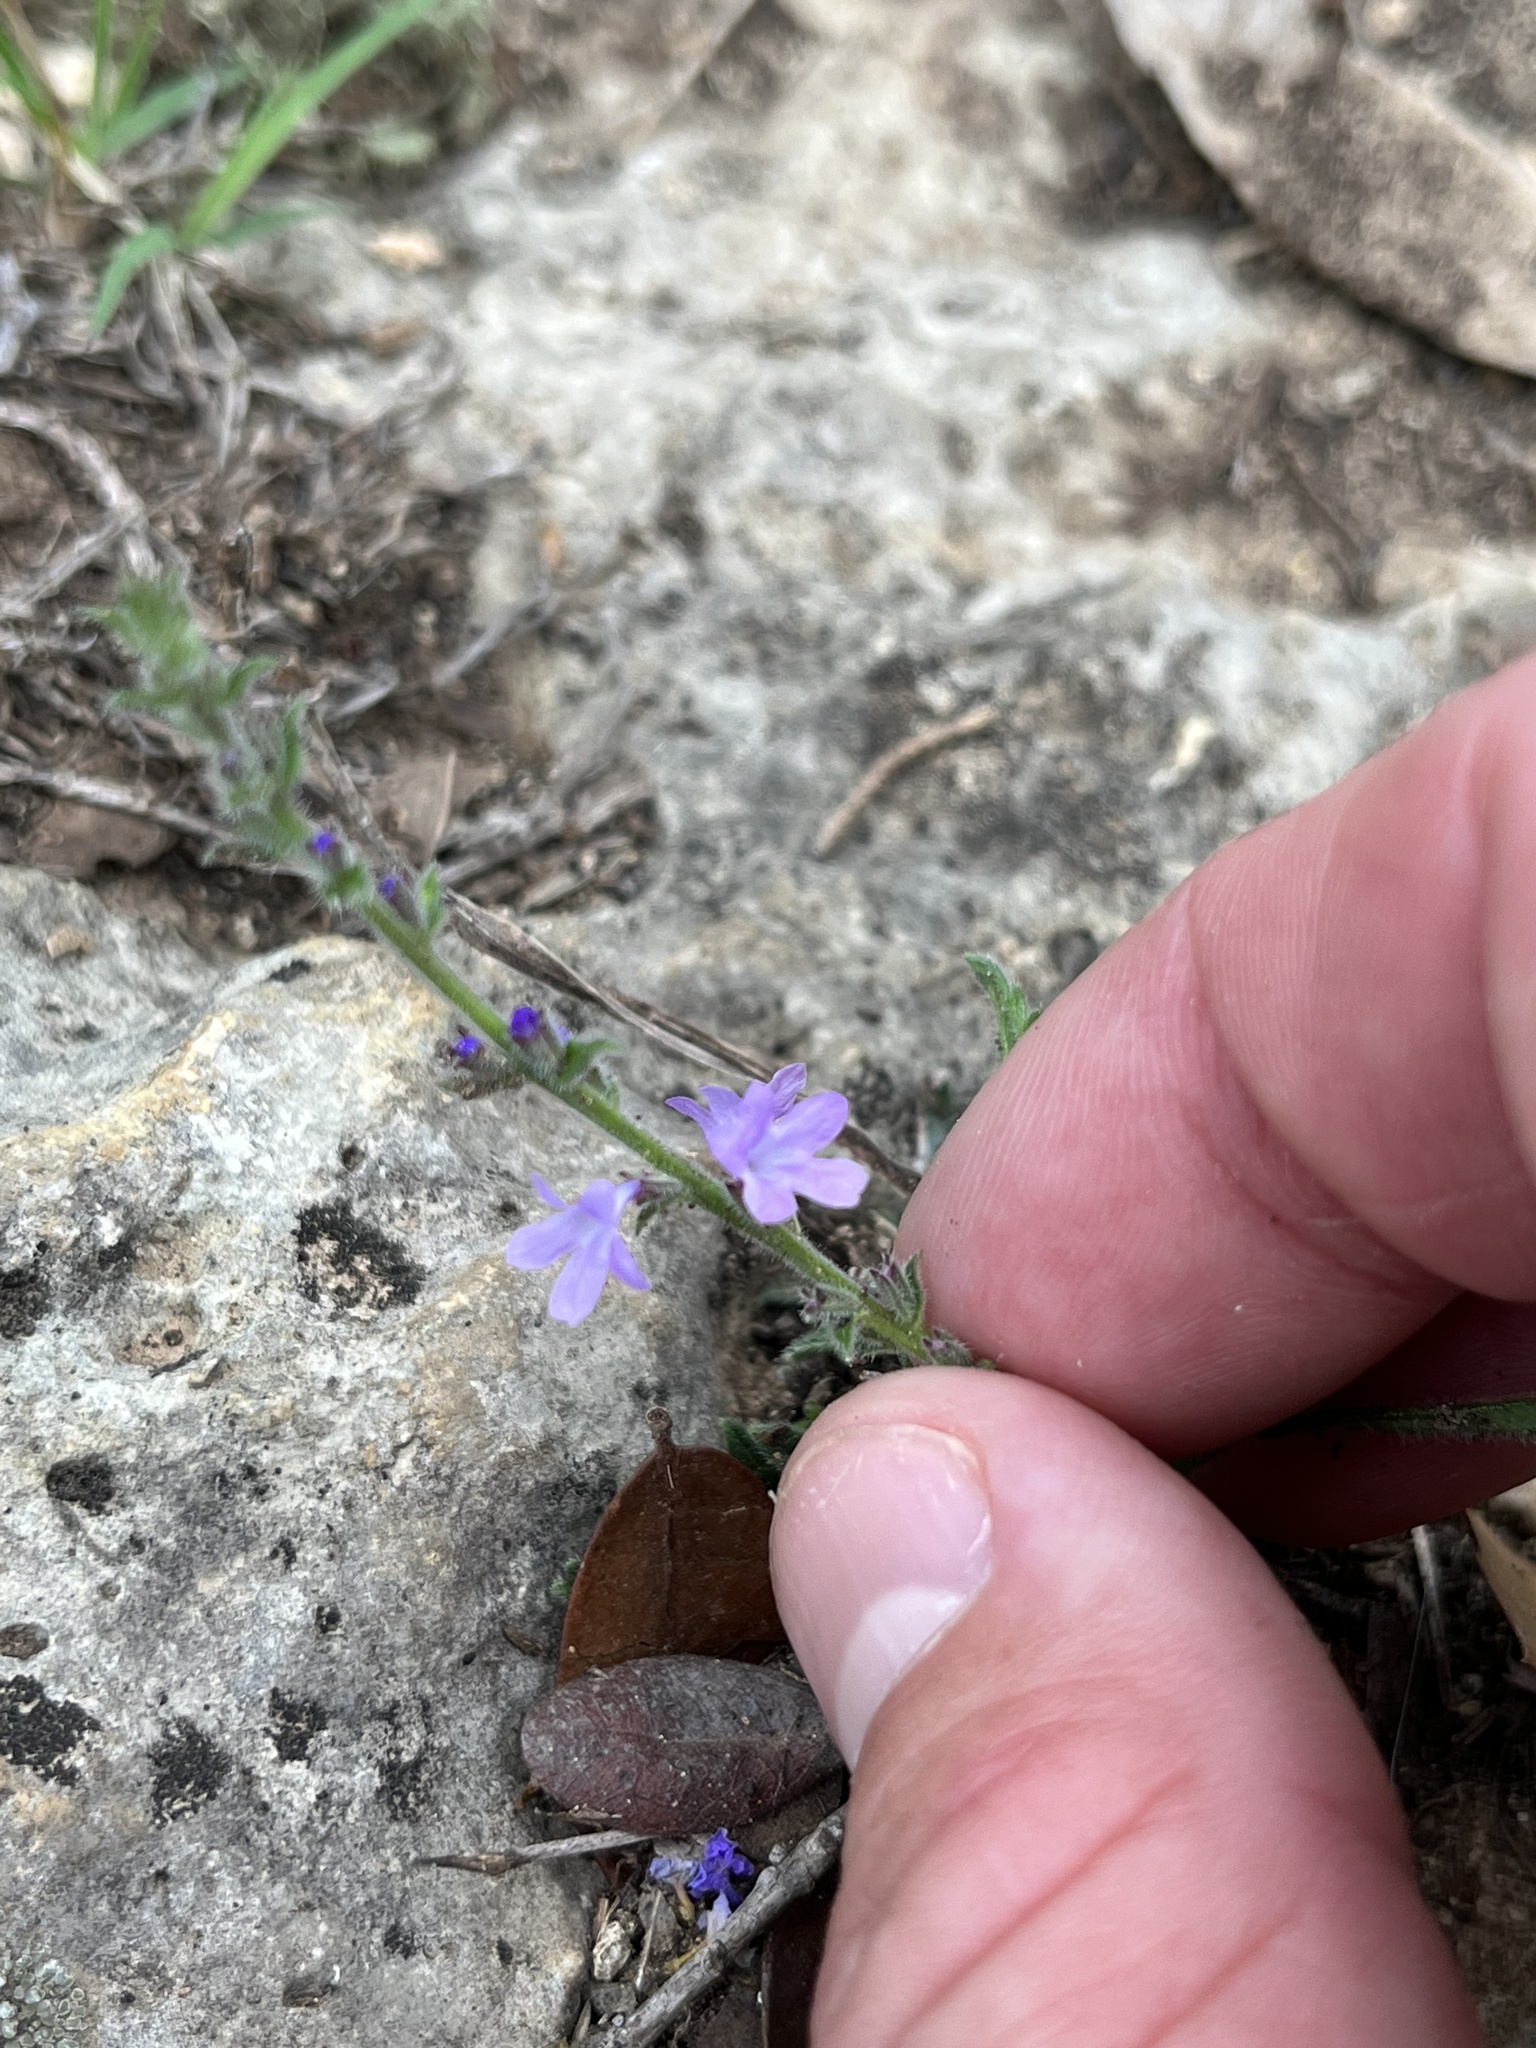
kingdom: Plantae
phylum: Tracheophyta
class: Magnoliopsida
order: Lamiales
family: Verbenaceae
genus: Verbena
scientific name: Verbena canescens
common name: Gray vervain
